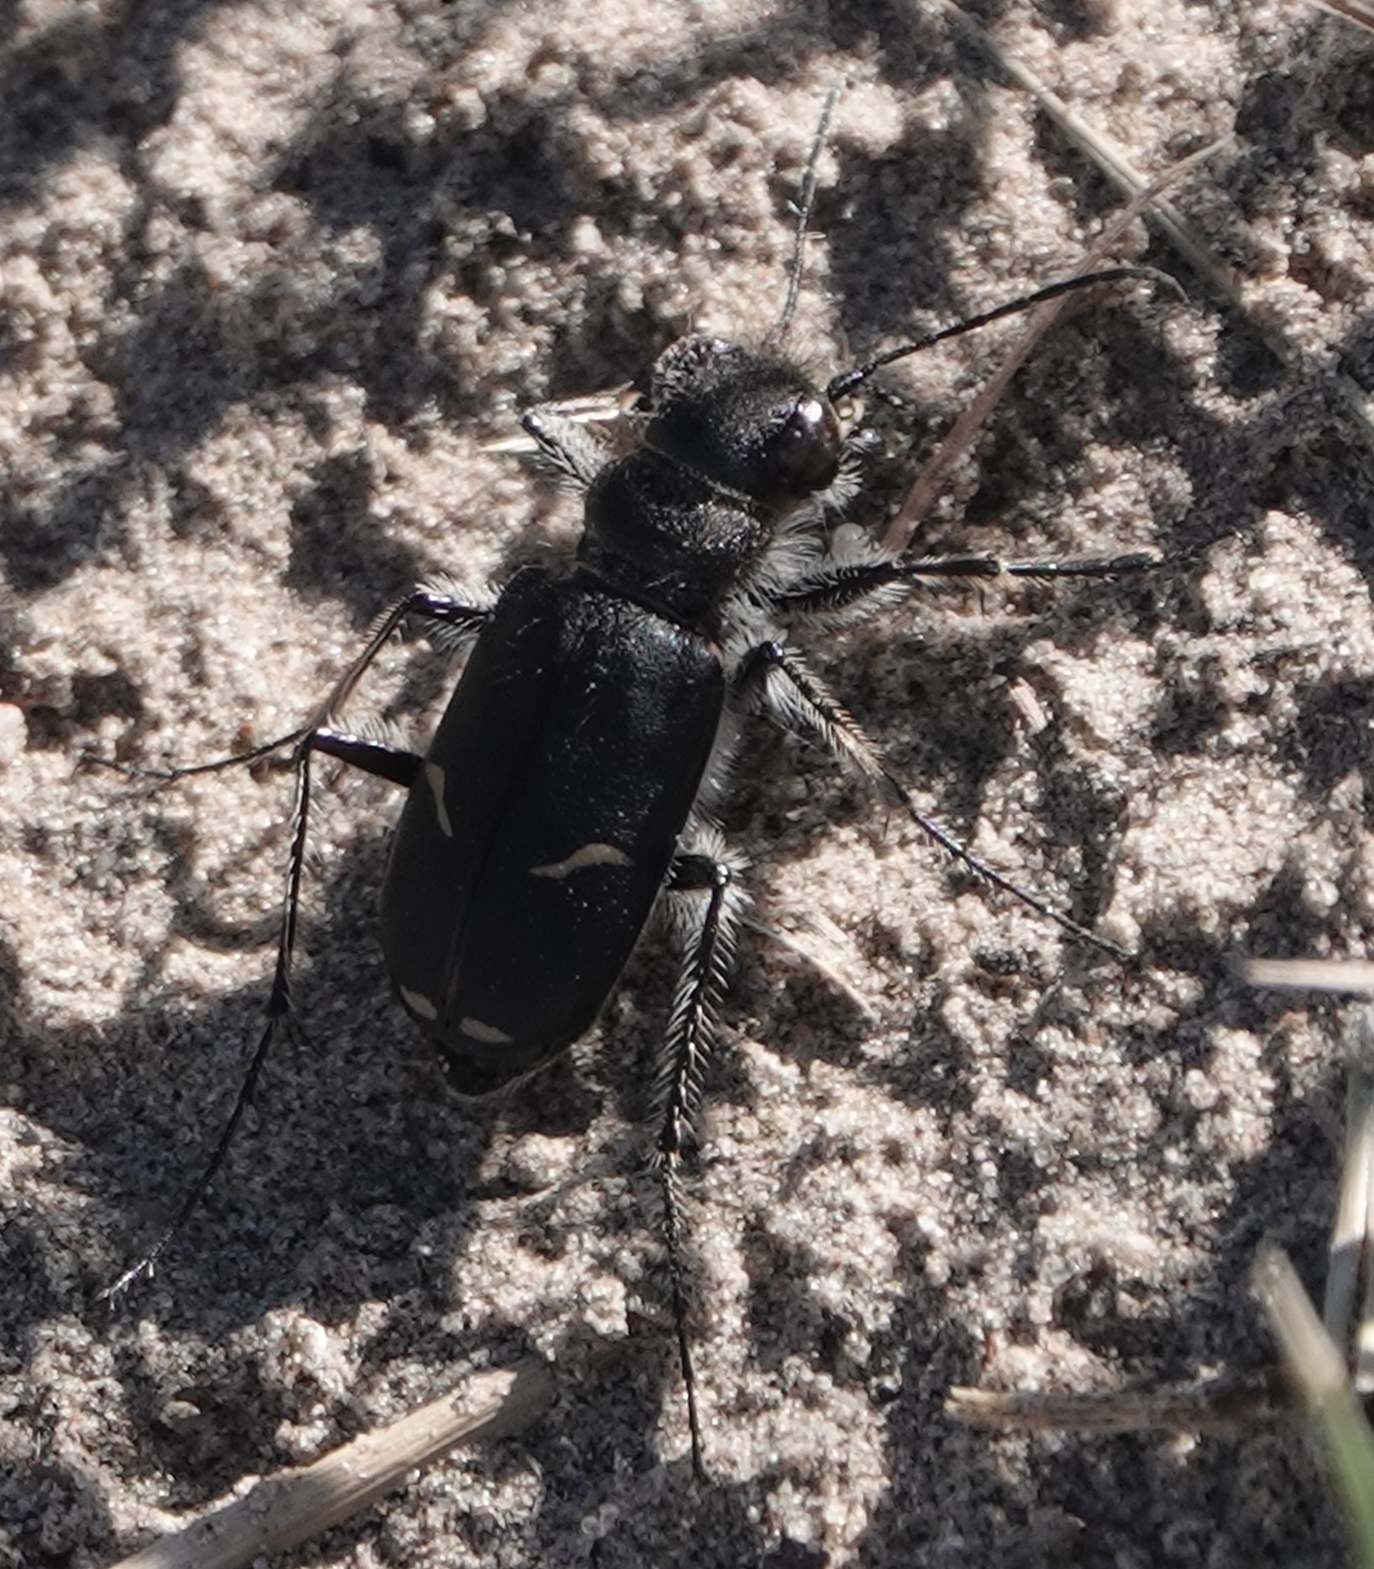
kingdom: Animalia
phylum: Arthropoda
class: Insecta
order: Coleoptera
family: Carabidae
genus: Cicindela
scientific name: Cicindela purpurea
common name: Cow path tiger beetle
